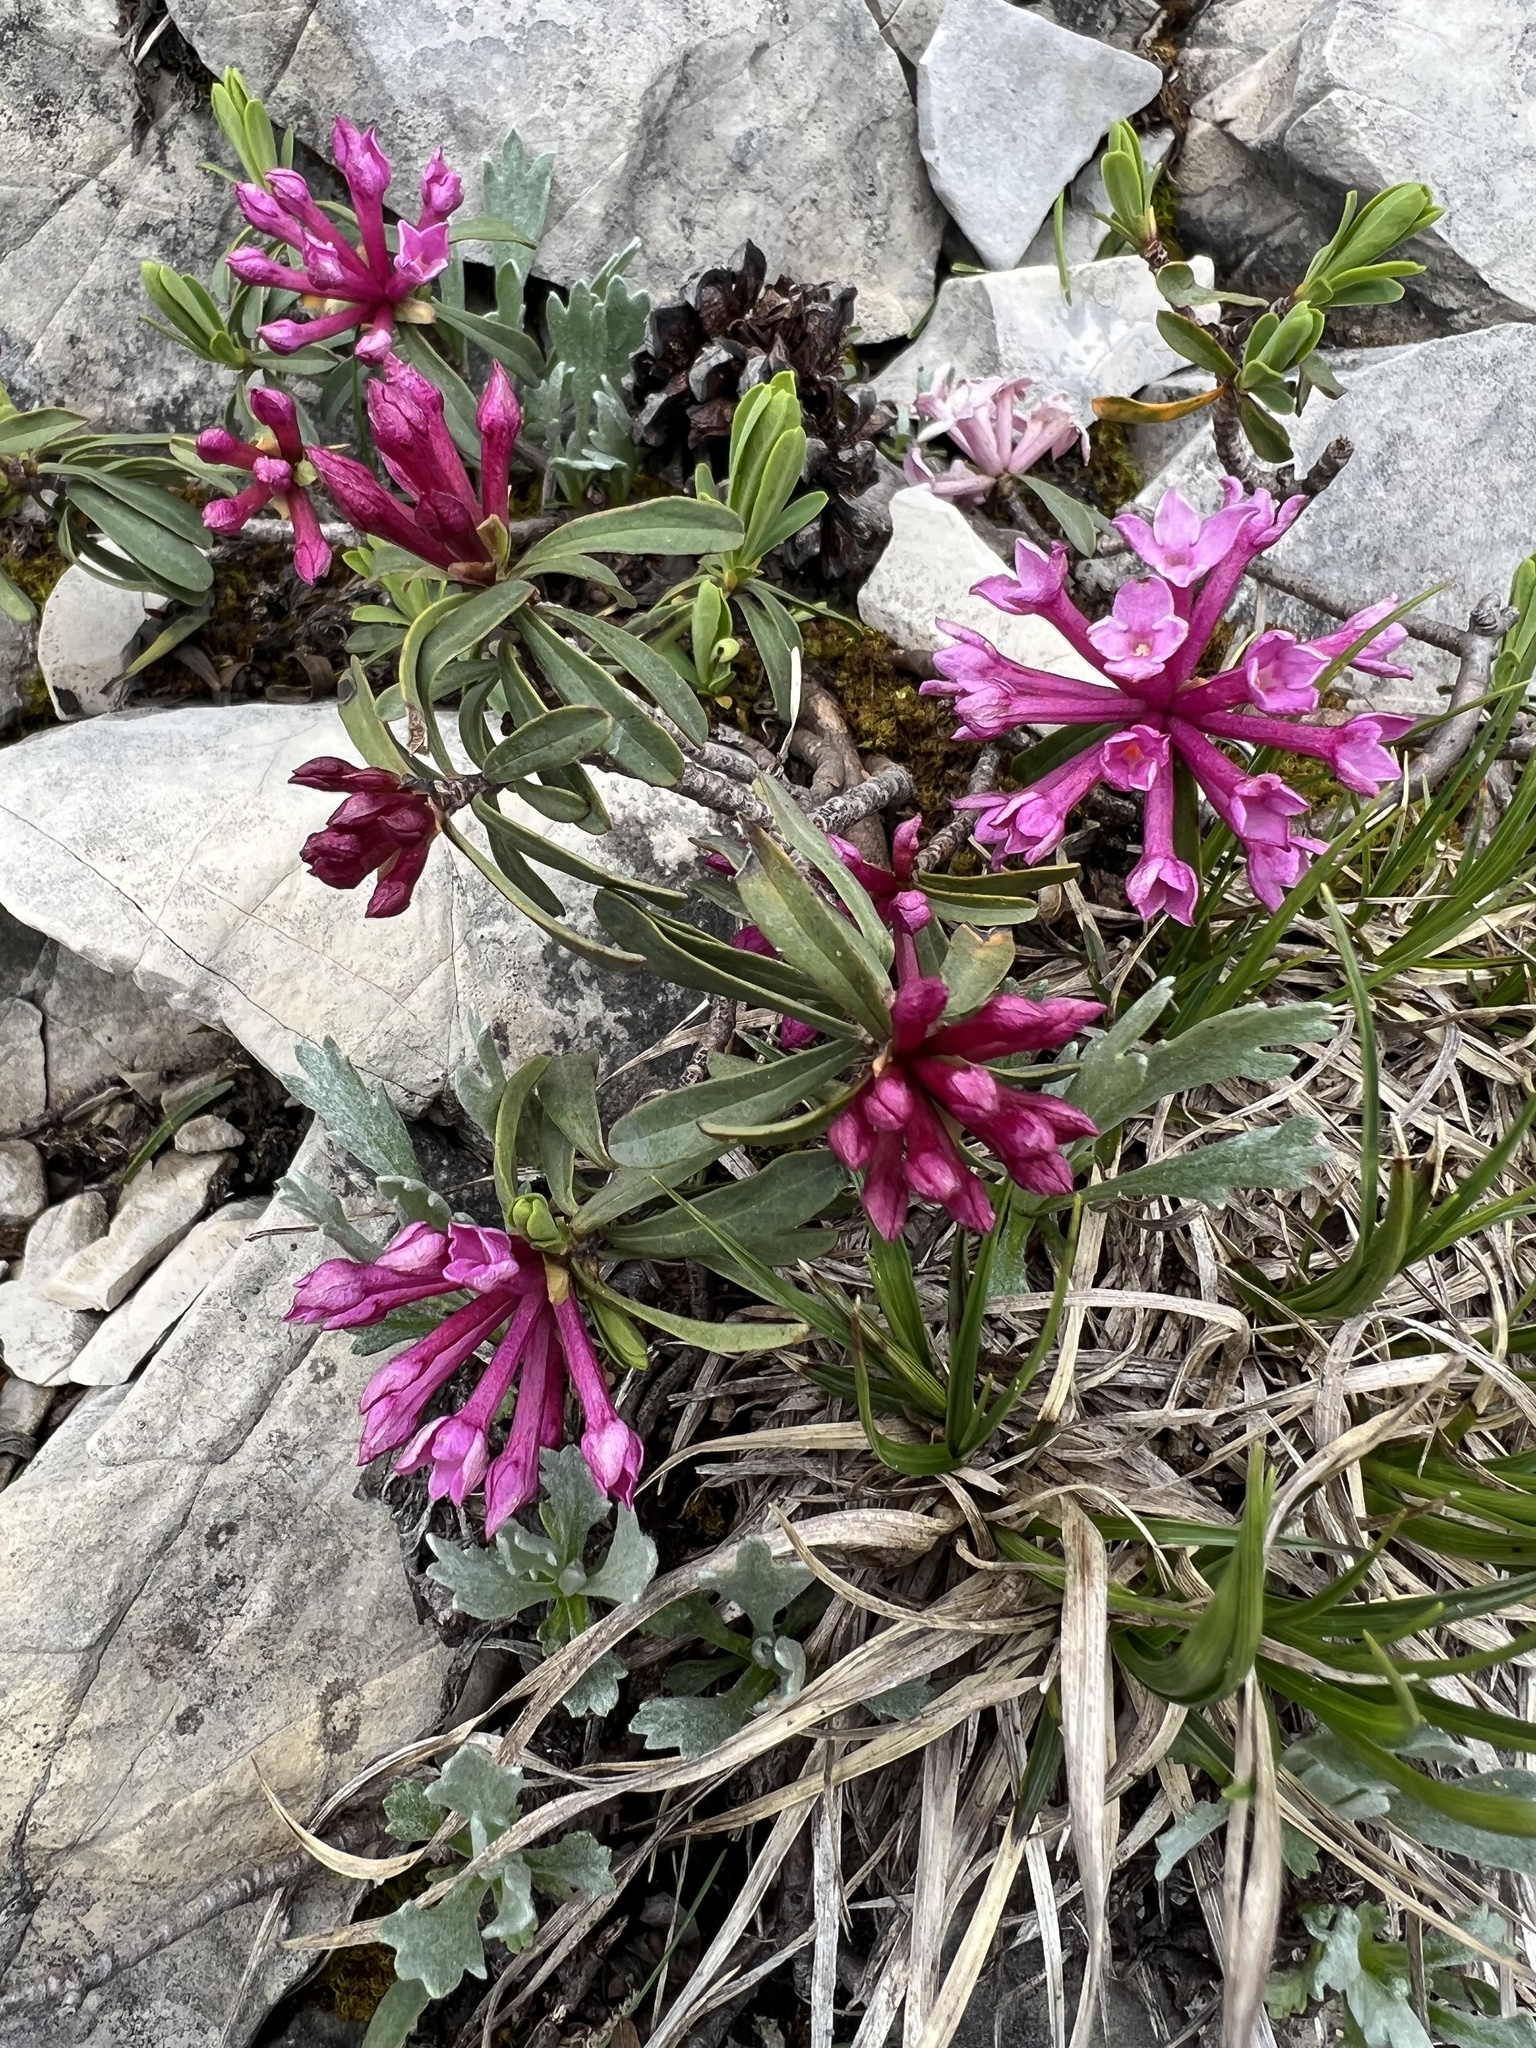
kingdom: Plantae
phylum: Tracheophyta
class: Magnoliopsida
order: Malvales
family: Thymelaeaceae
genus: Daphne
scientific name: Daphne striata
